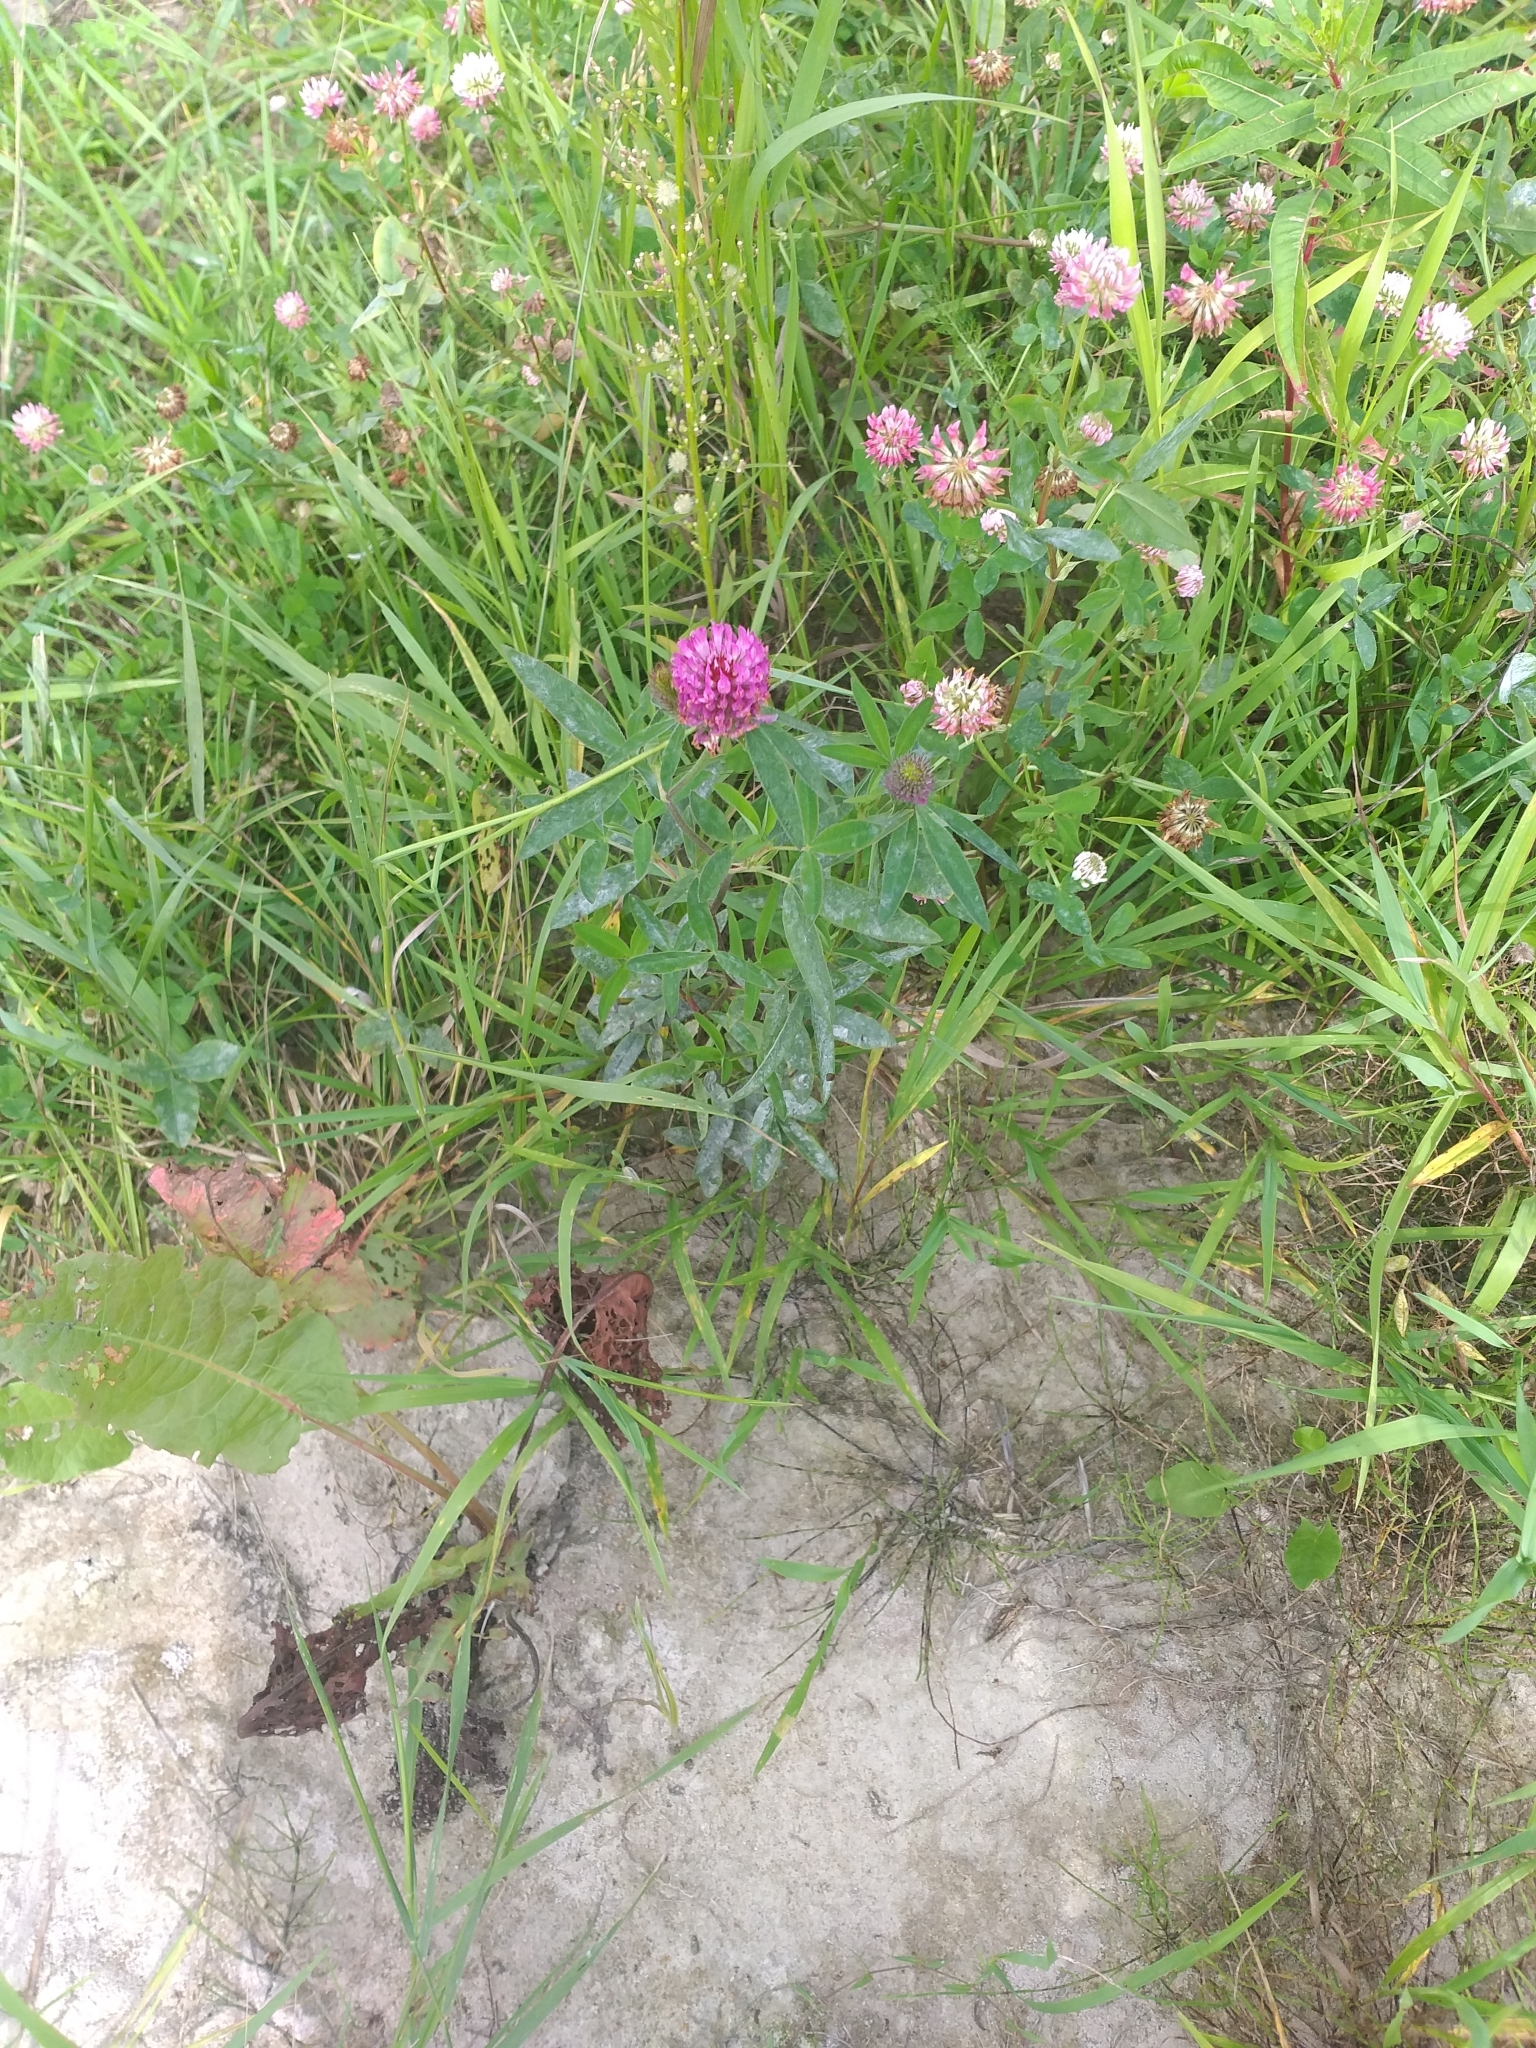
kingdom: Plantae
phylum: Tracheophyta
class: Magnoliopsida
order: Fabales
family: Fabaceae
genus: Trifolium
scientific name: Trifolium medium
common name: Zigzag clover
